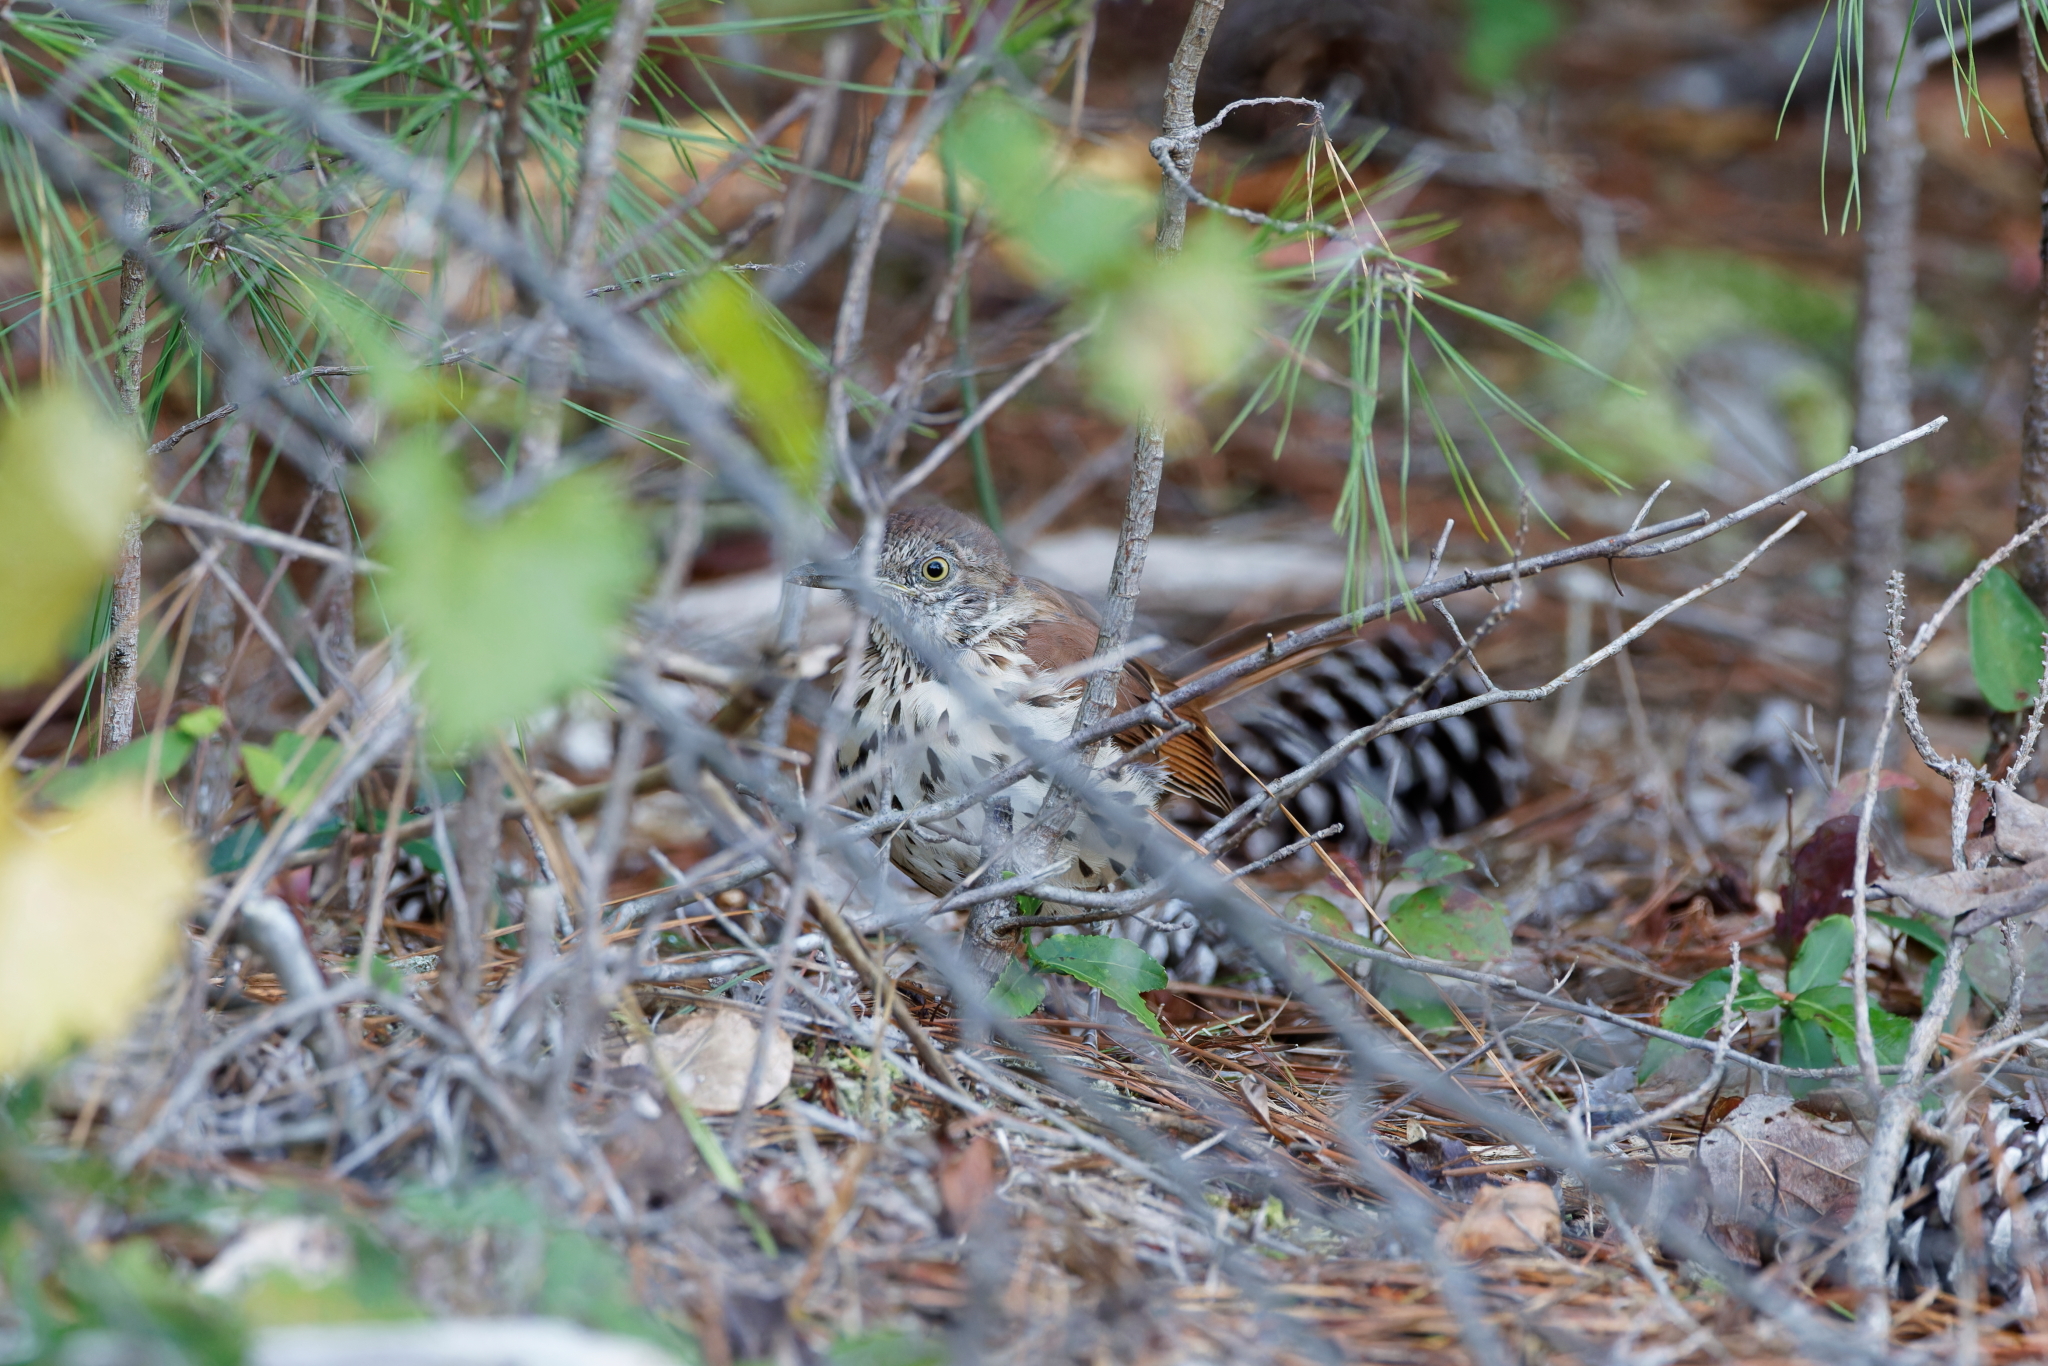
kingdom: Animalia
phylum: Chordata
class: Aves
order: Passeriformes
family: Mimidae
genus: Toxostoma
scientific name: Toxostoma rufum
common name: Brown thrasher
